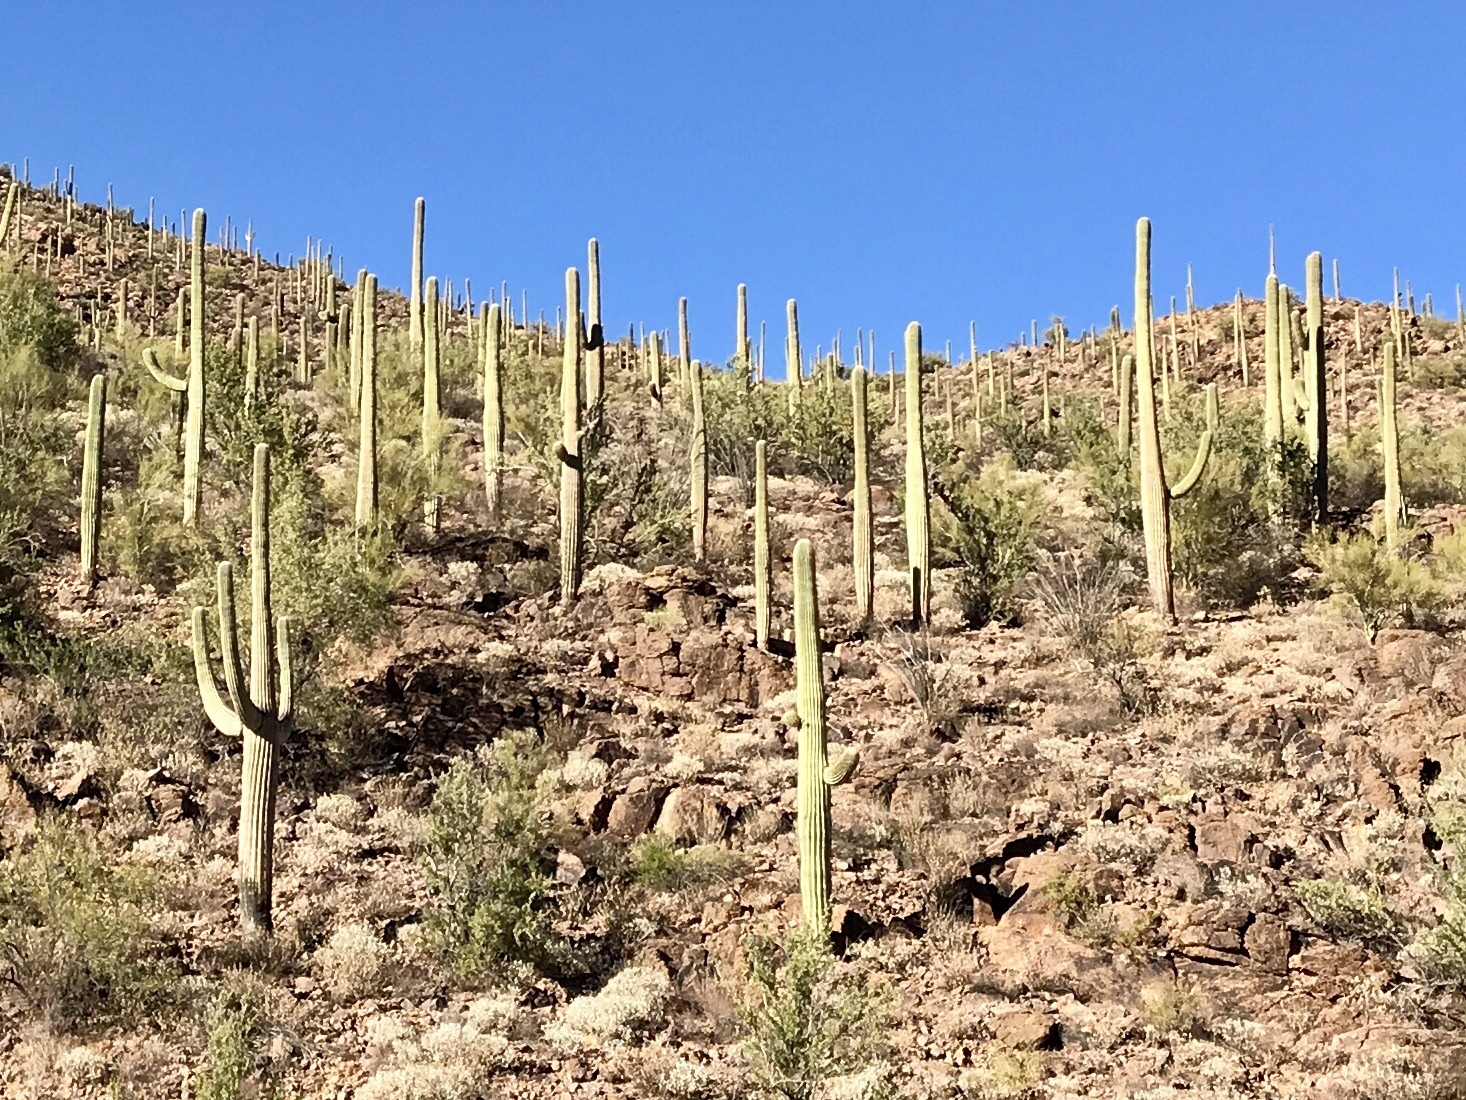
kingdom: Plantae
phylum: Tracheophyta
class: Magnoliopsida
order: Caryophyllales
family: Cactaceae
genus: Carnegiea
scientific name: Carnegiea gigantea
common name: Saguaro
